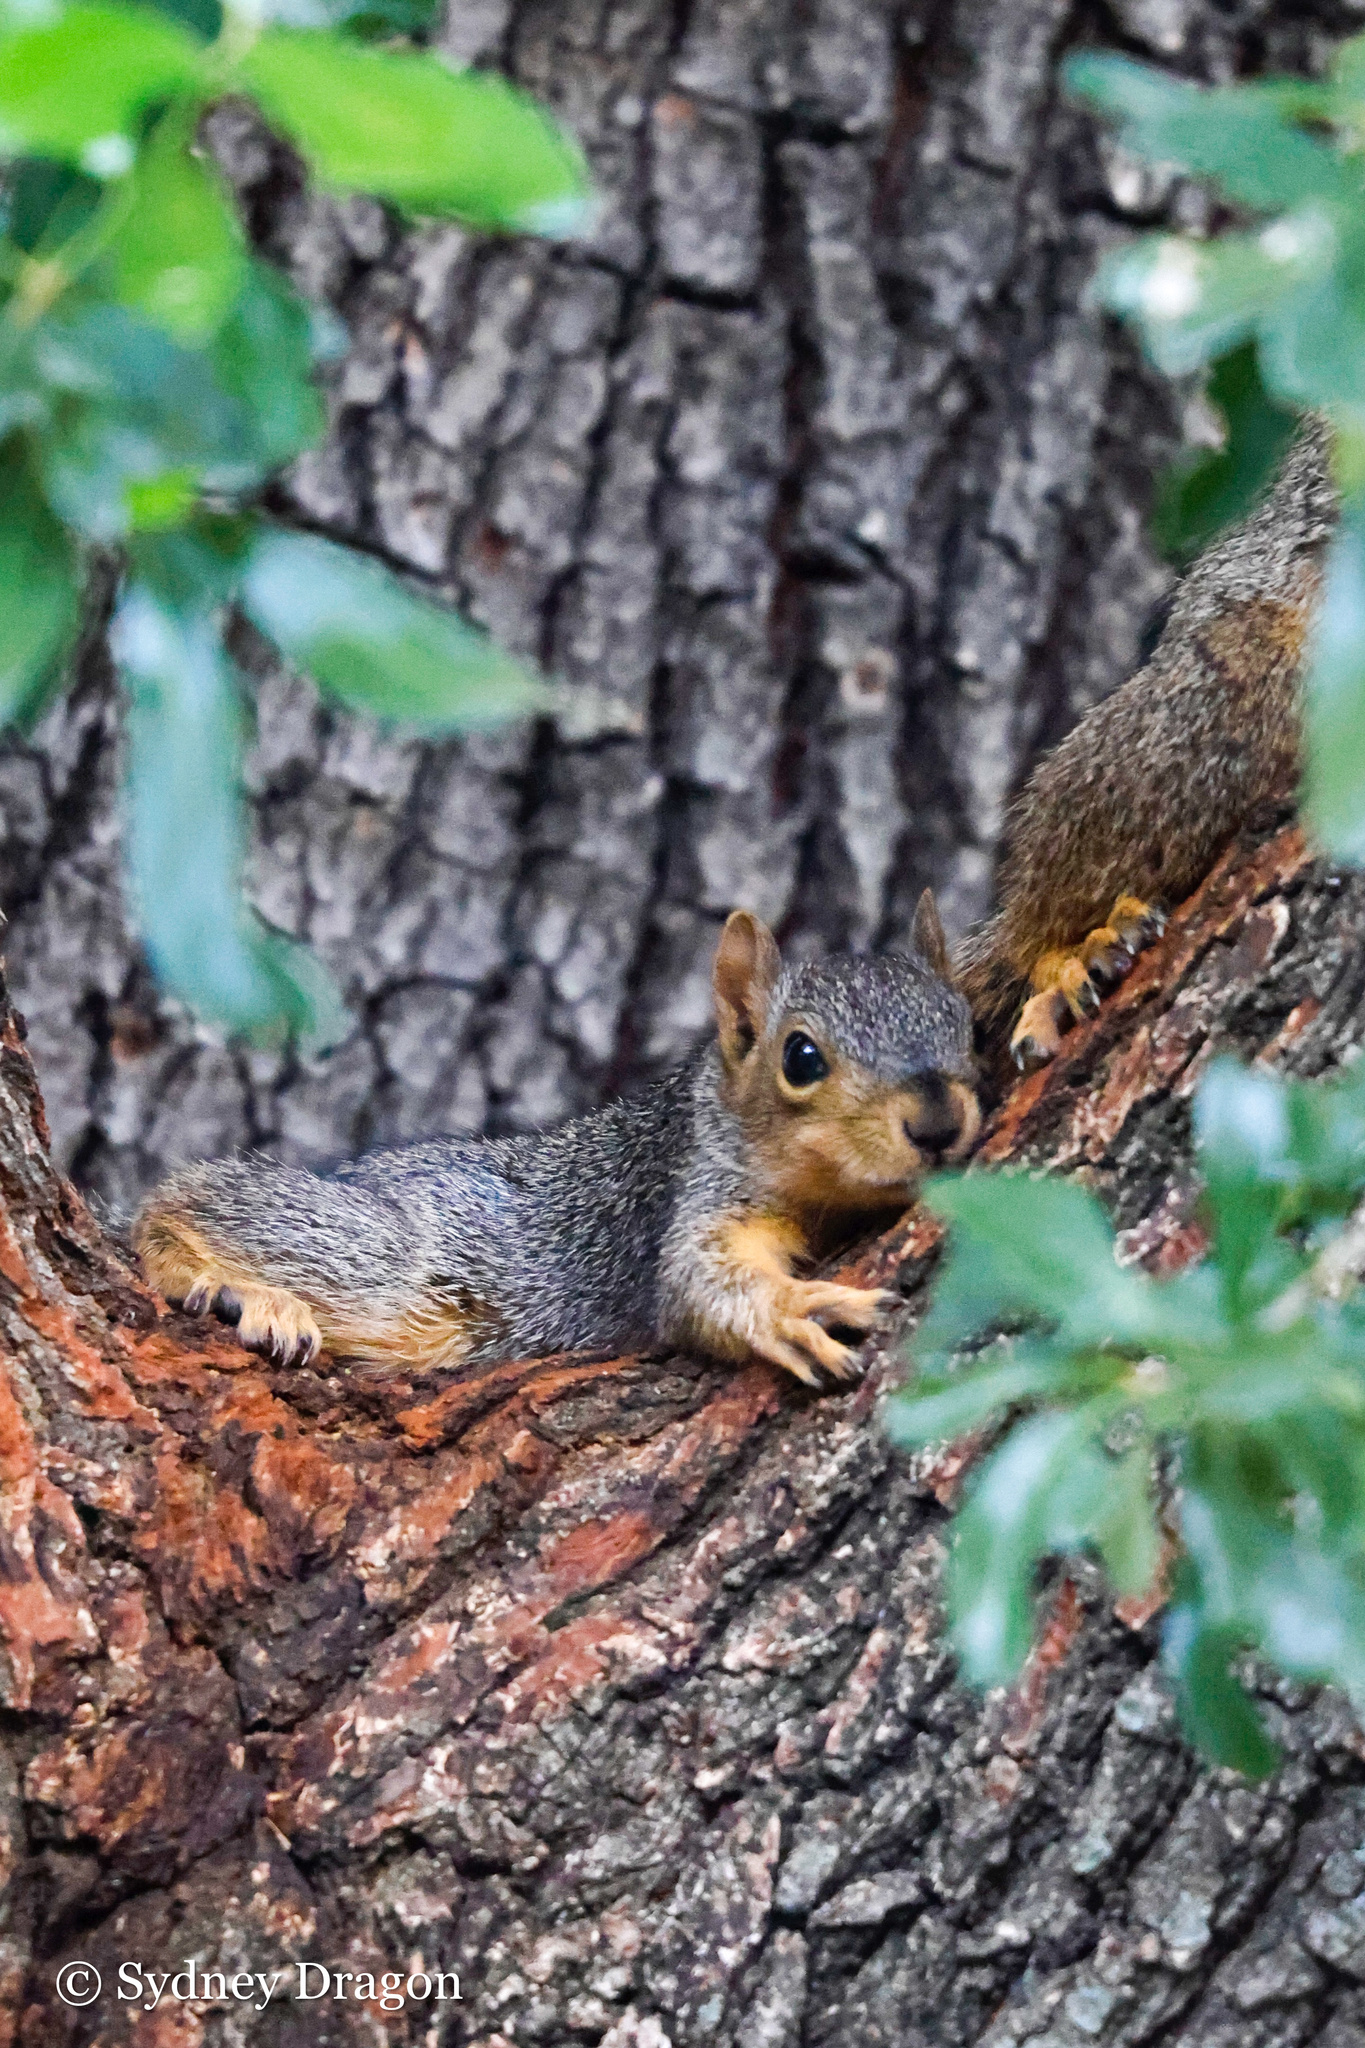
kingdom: Animalia
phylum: Chordata
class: Mammalia
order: Rodentia
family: Sciuridae
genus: Sciurus
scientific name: Sciurus niger
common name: Fox squirrel
